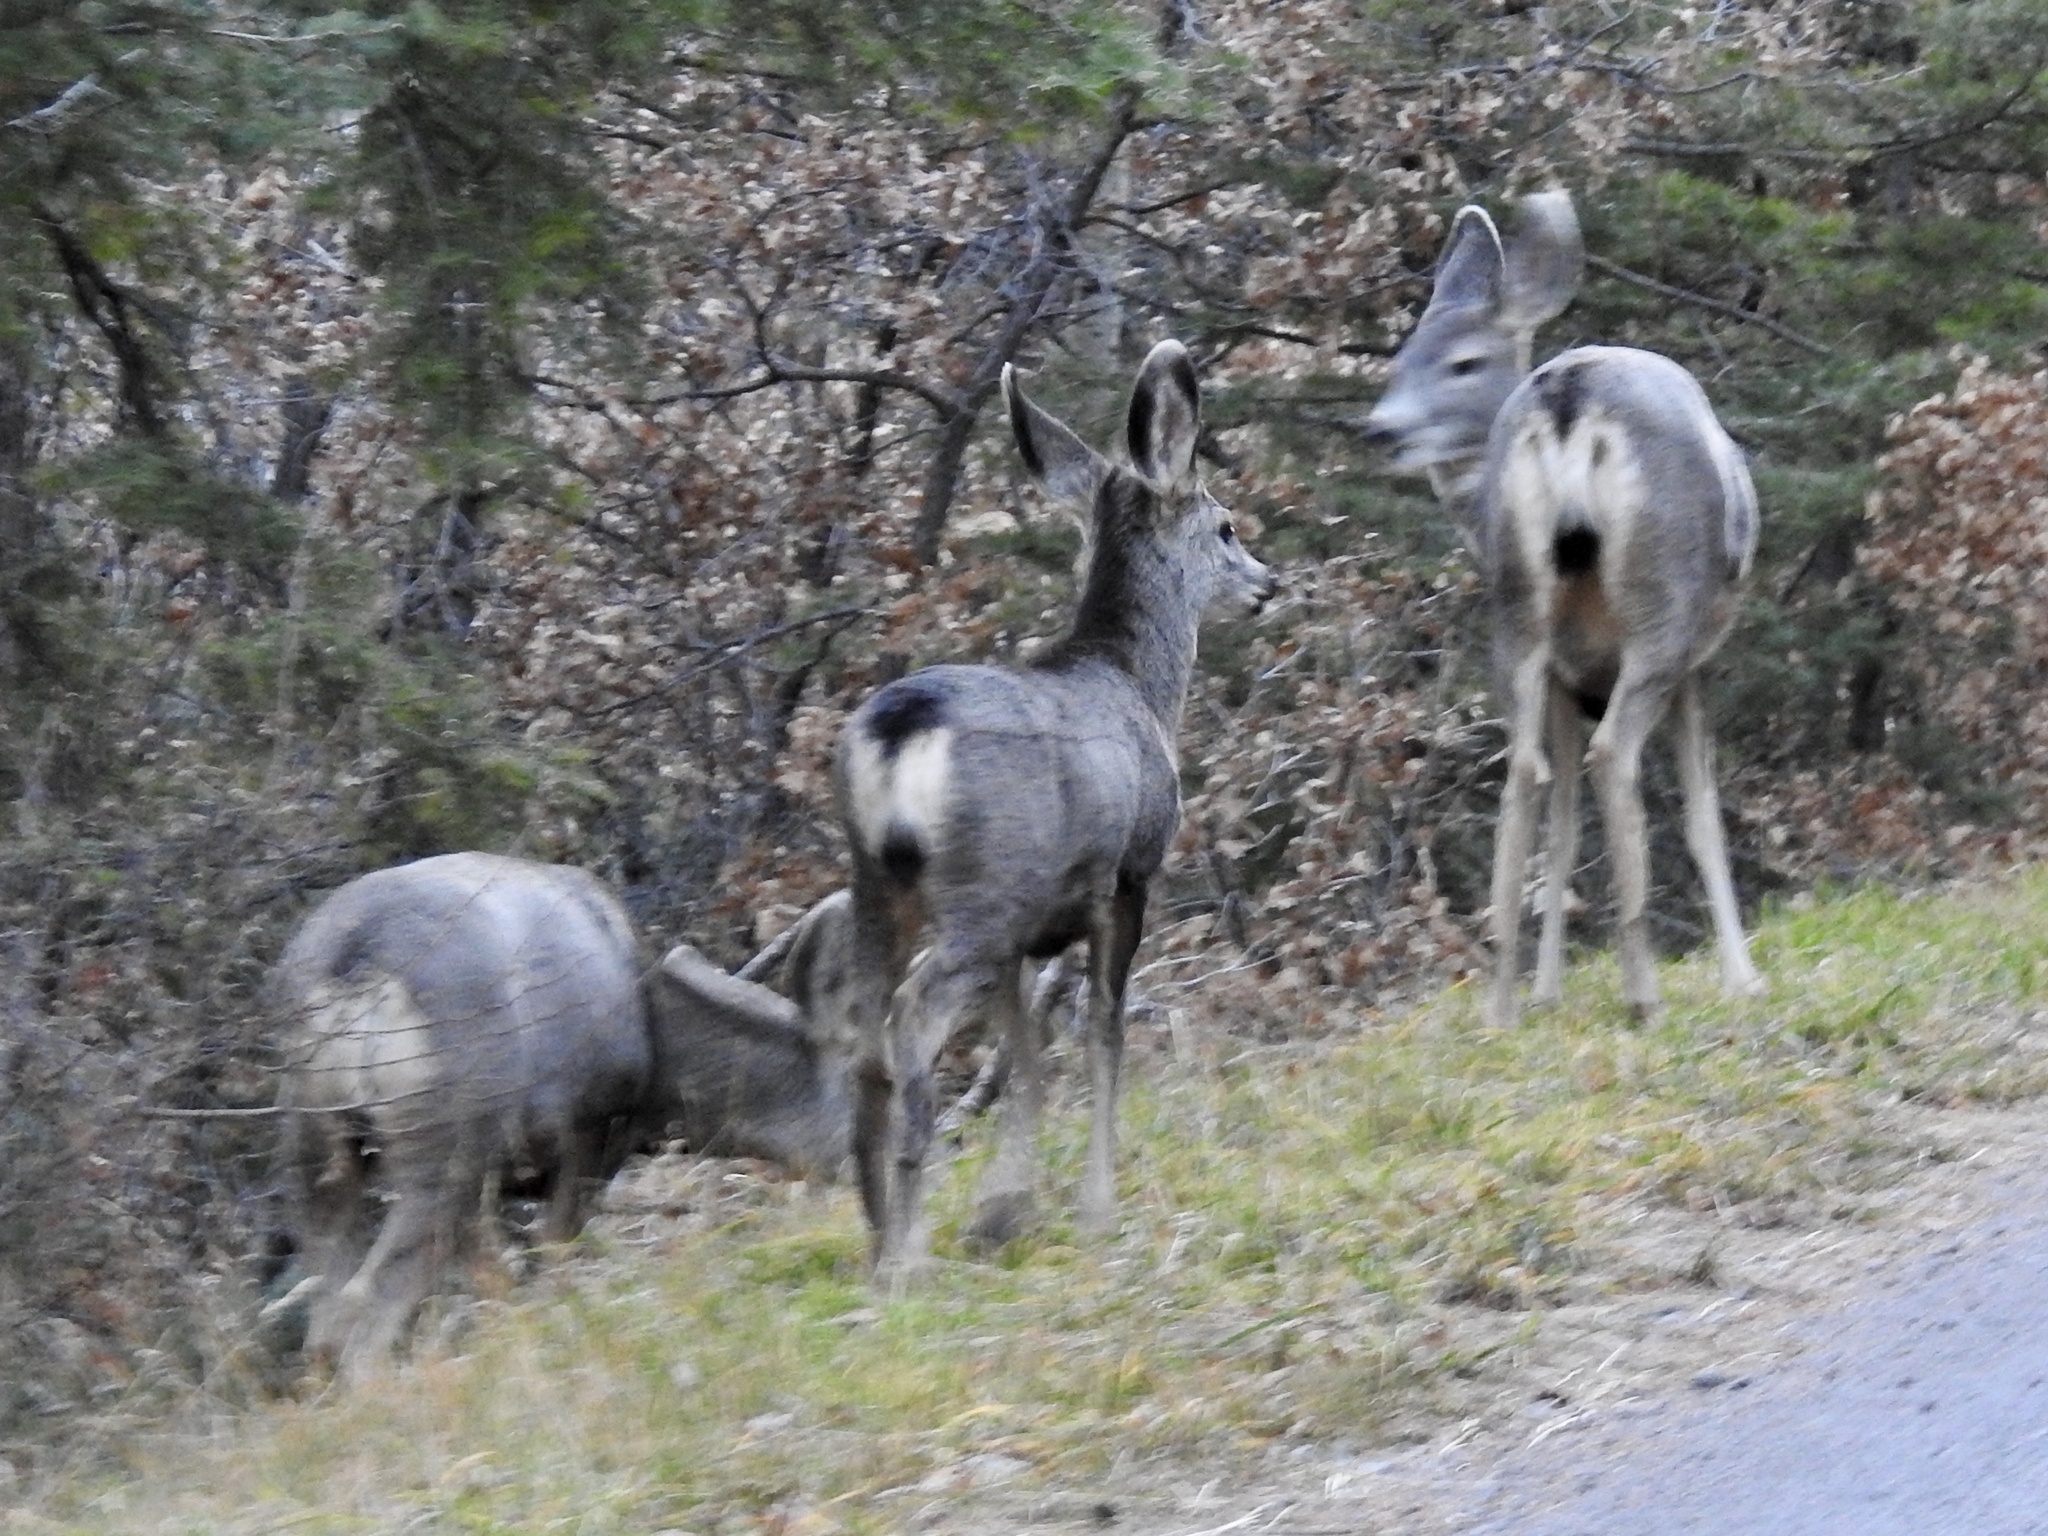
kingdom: Animalia
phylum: Chordata
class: Mammalia
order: Artiodactyla
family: Cervidae
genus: Odocoileus
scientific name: Odocoileus hemionus
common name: Mule deer
